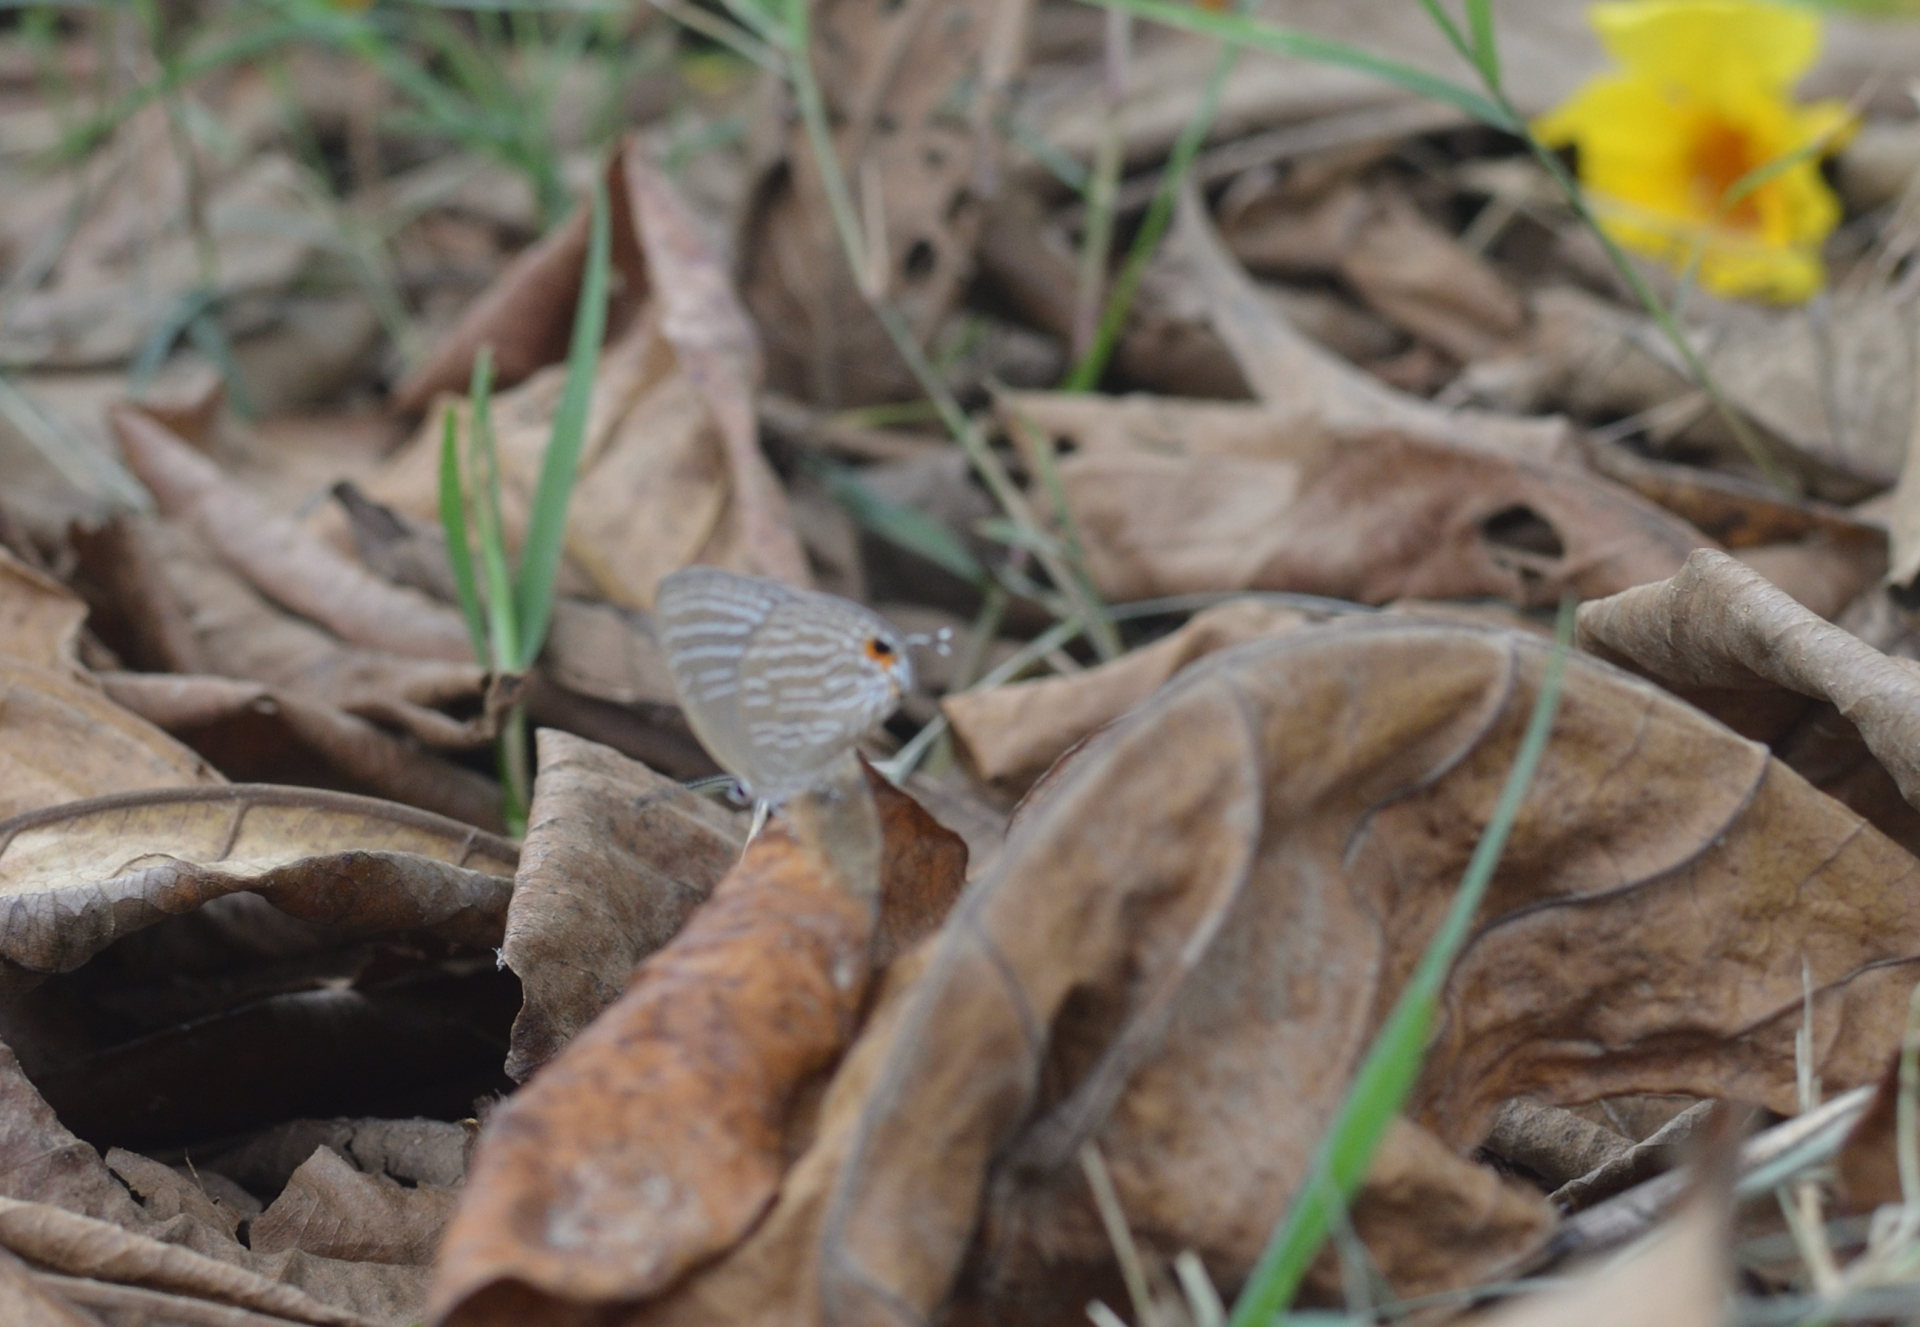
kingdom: Animalia
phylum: Arthropoda
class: Insecta
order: Lepidoptera
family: Lycaenidae
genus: Jamides
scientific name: Jamides celeno
